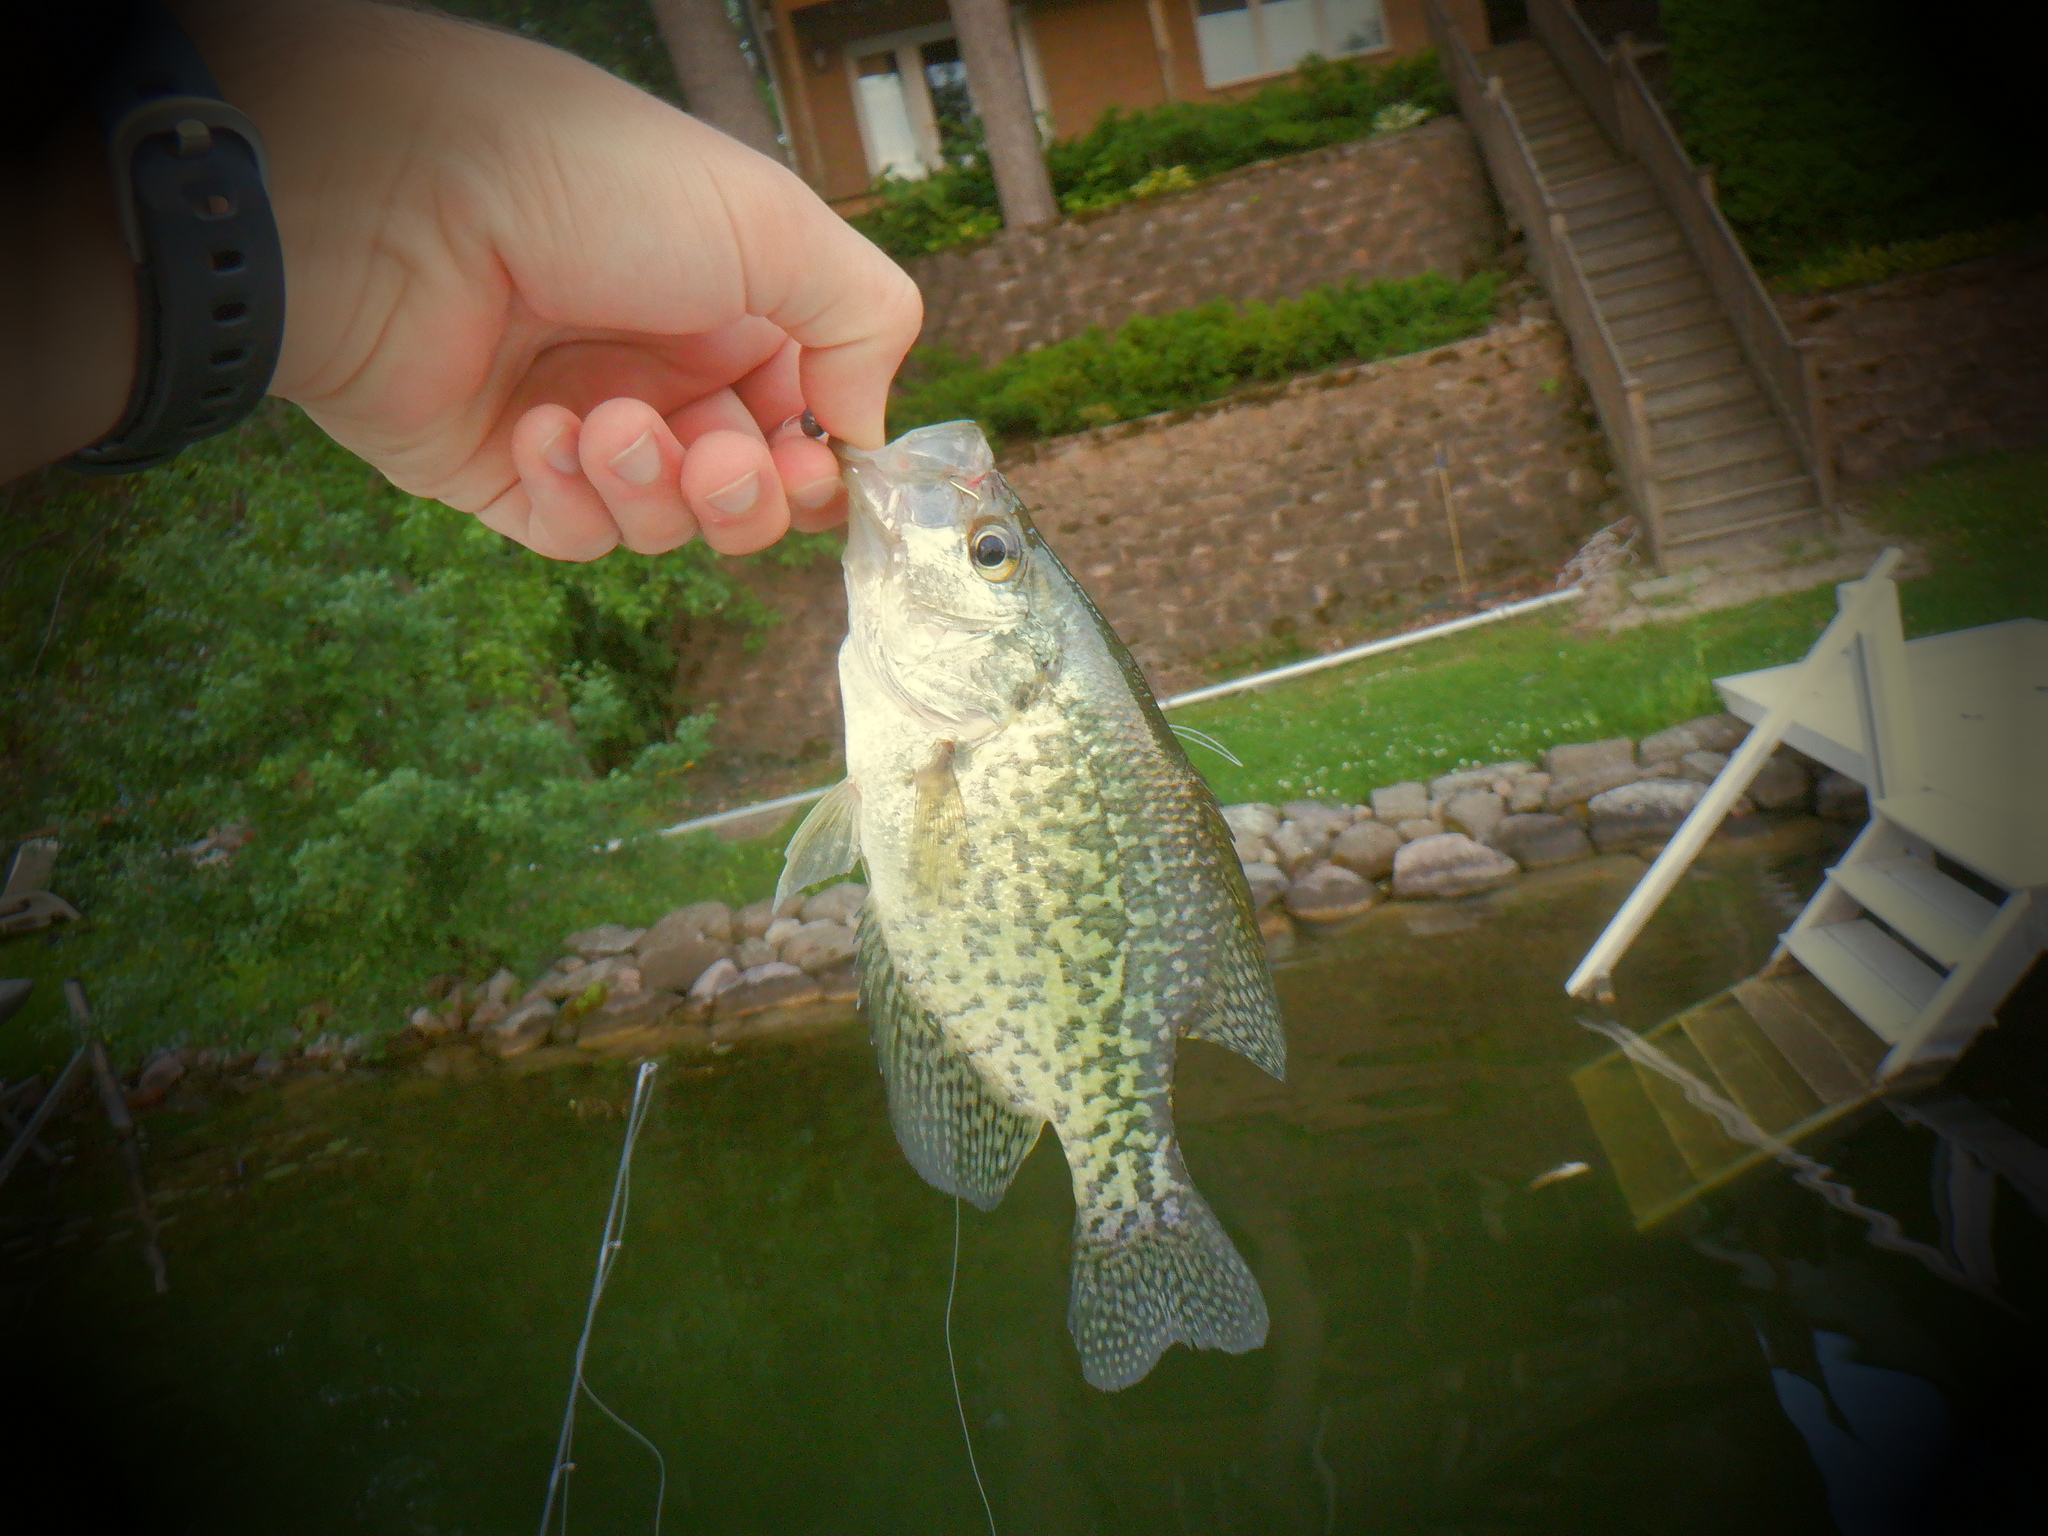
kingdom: Animalia
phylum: Chordata
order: Perciformes
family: Centrarchidae
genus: Pomoxis
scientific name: Pomoxis nigromaculatus
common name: Black crappie
